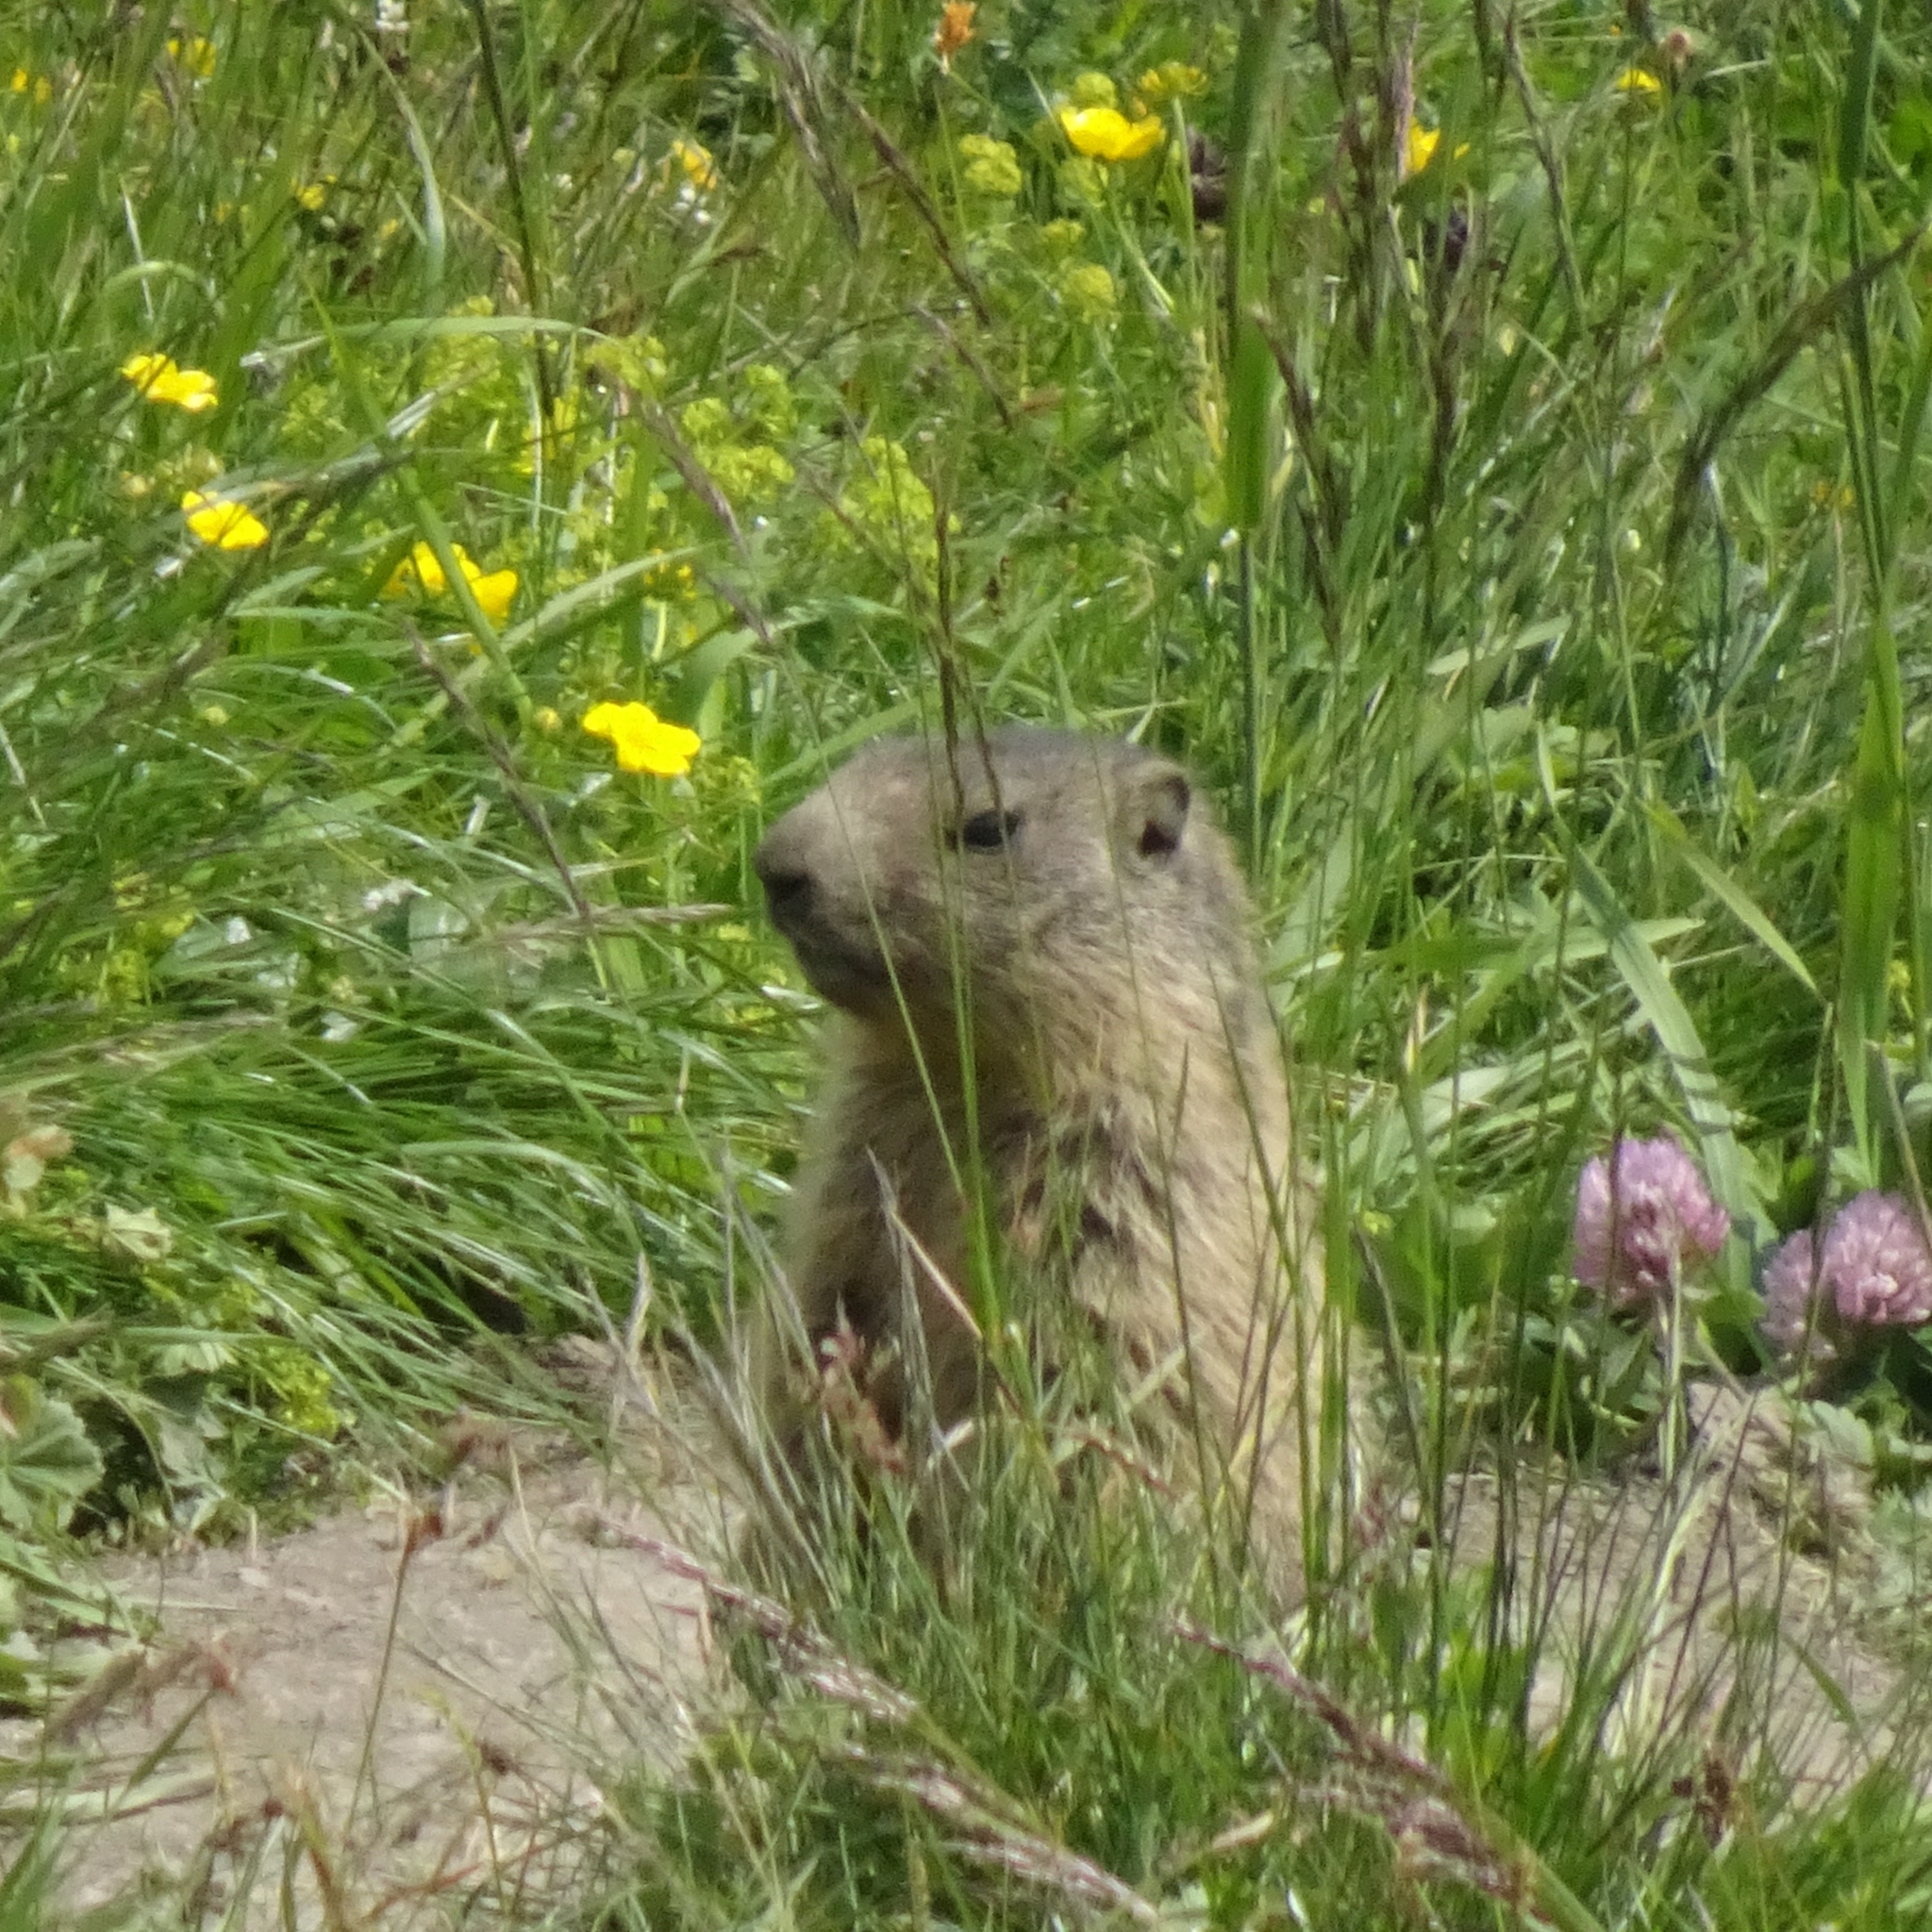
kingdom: Animalia
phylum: Chordata
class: Mammalia
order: Rodentia
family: Sciuridae
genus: Marmota
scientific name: Marmota marmota
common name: Alpine marmot
